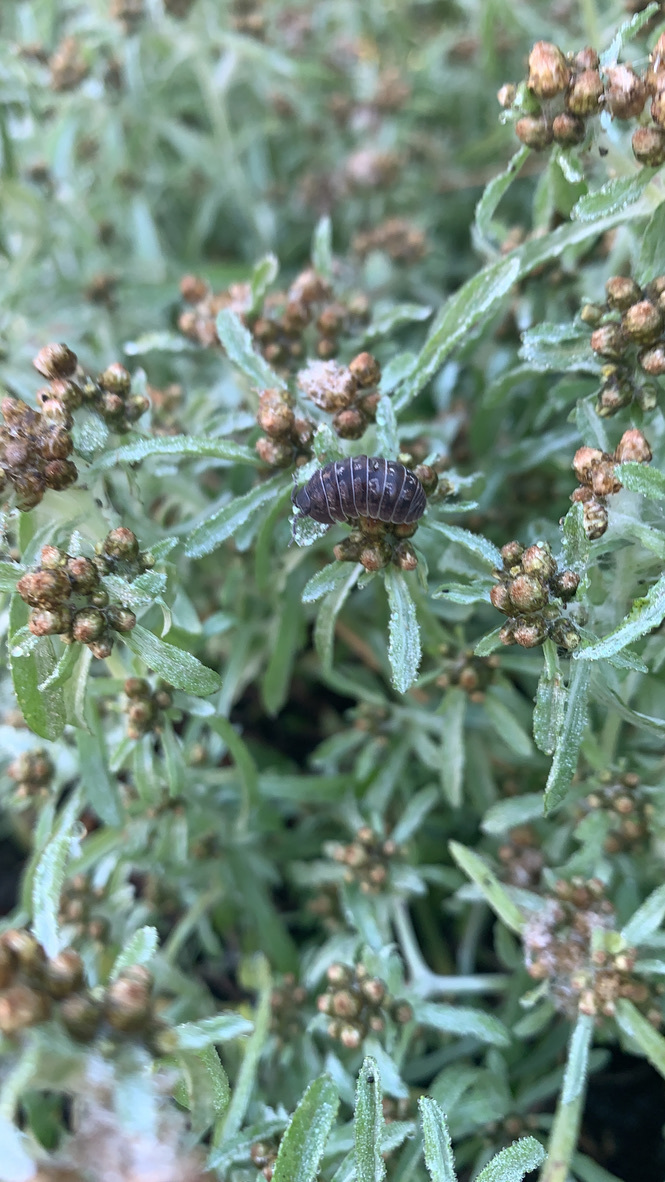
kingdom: Animalia
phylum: Arthropoda
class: Malacostraca
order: Isopoda
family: Armadillidiidae
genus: Armadillidium
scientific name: Armadillidium vulgare
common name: Common pill woodlouse
